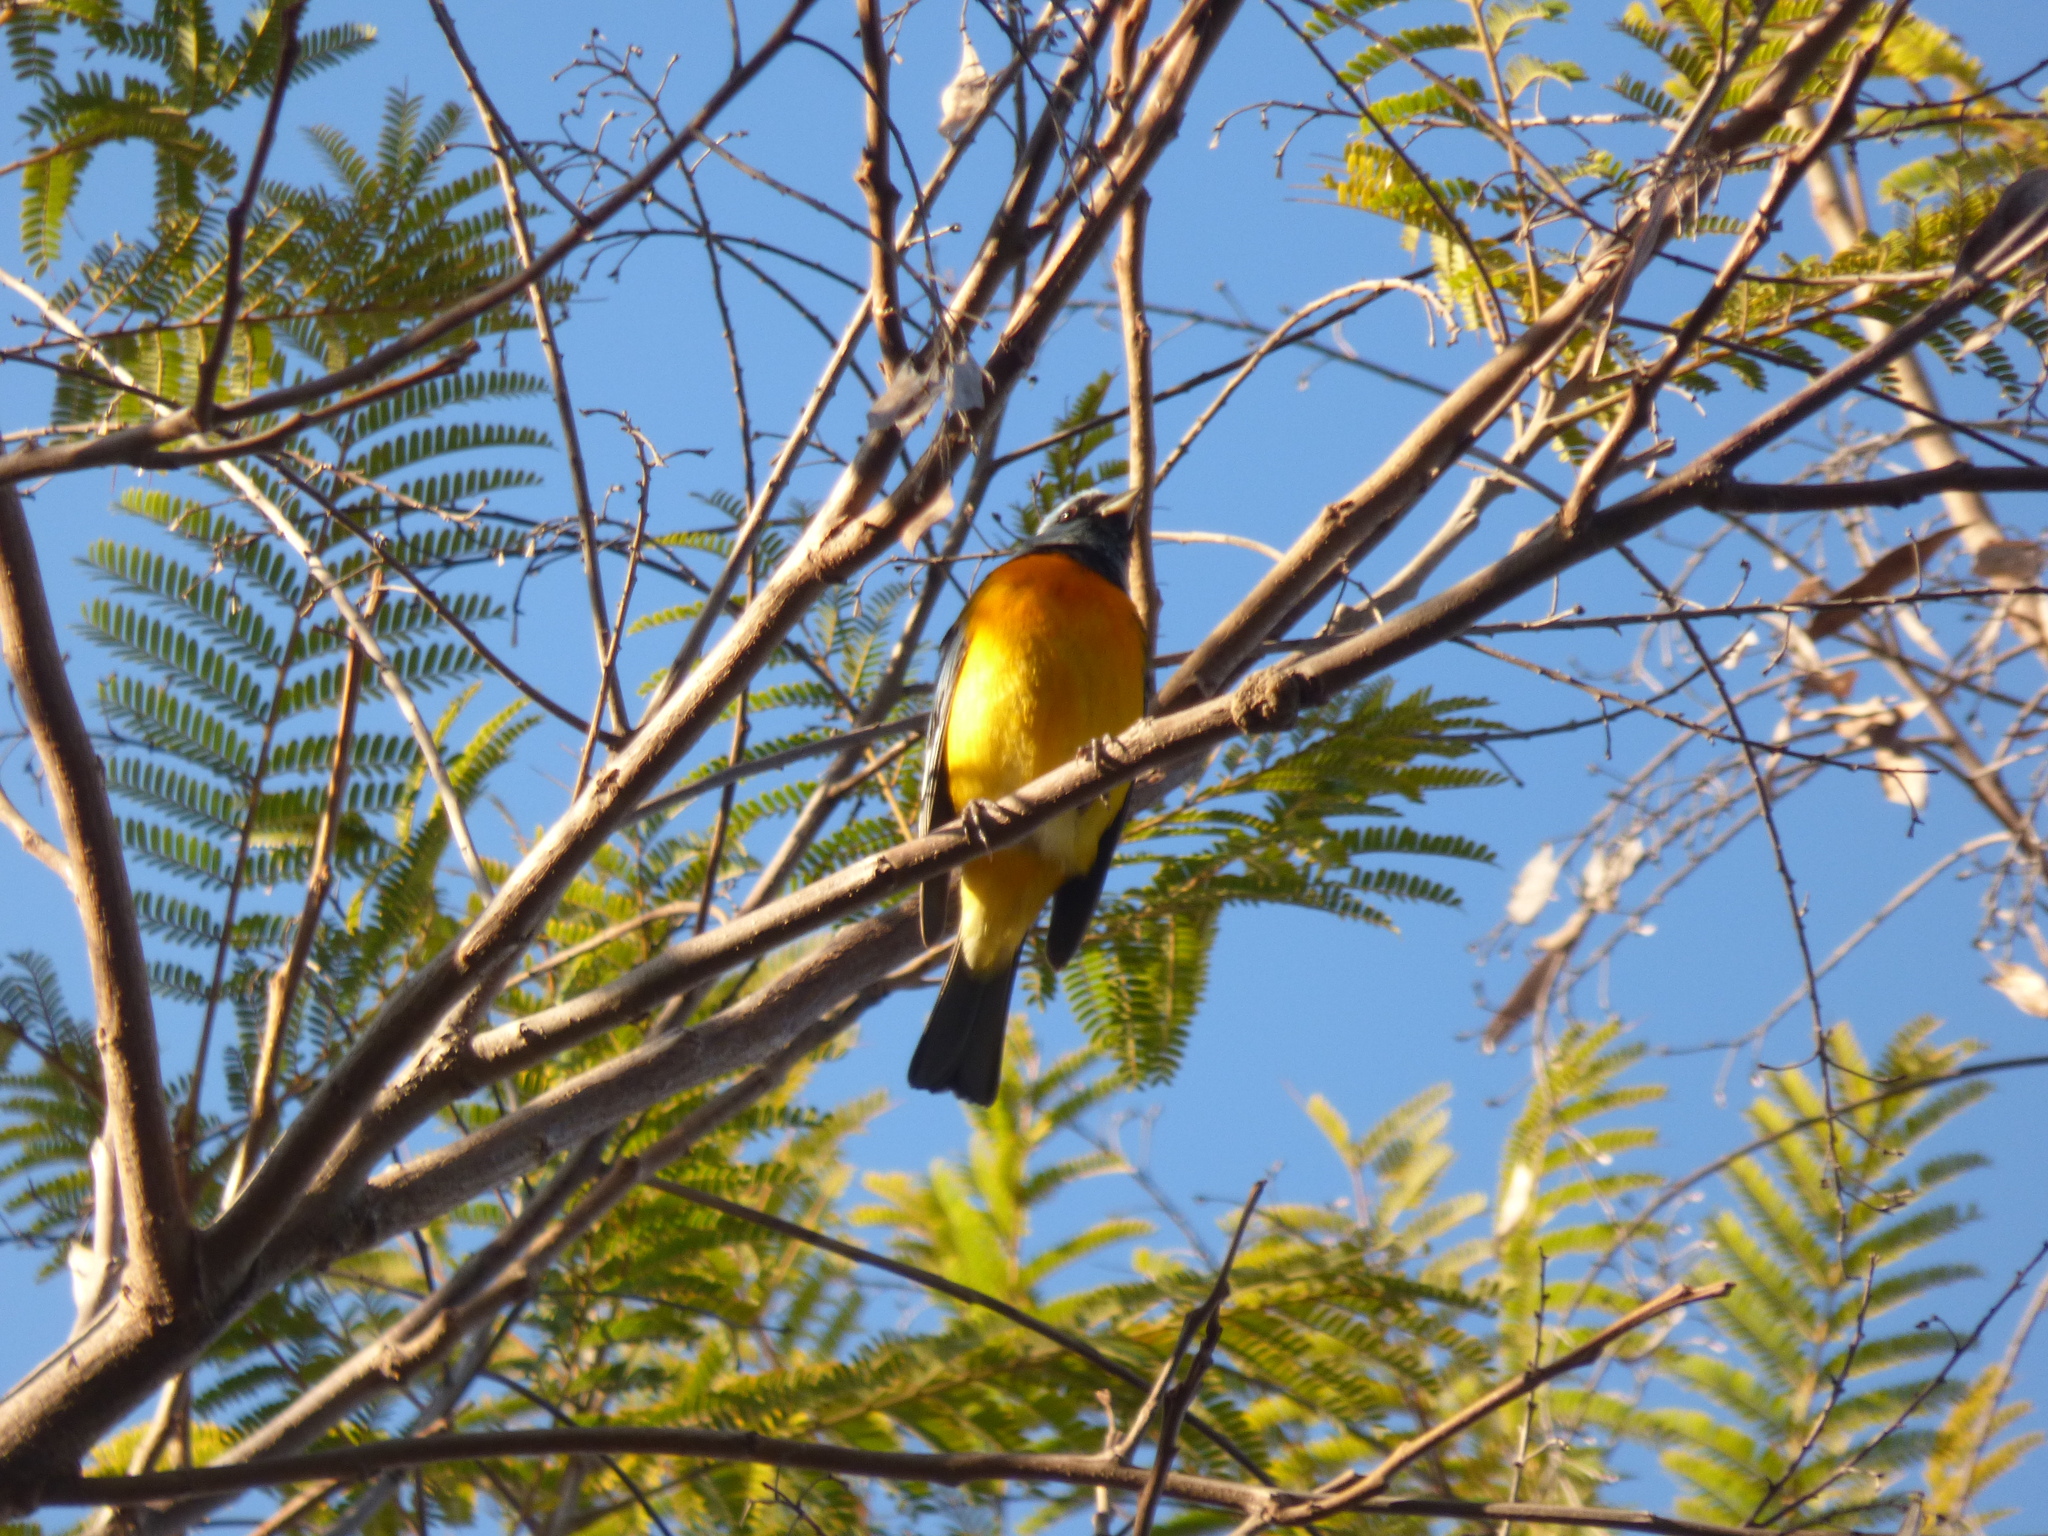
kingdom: Animalia
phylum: Chordata
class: Aves
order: Passeriformes
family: Thraupidae
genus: Rauenia
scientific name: Rauenia bonariensis
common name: Blue-and-yellow tanager
